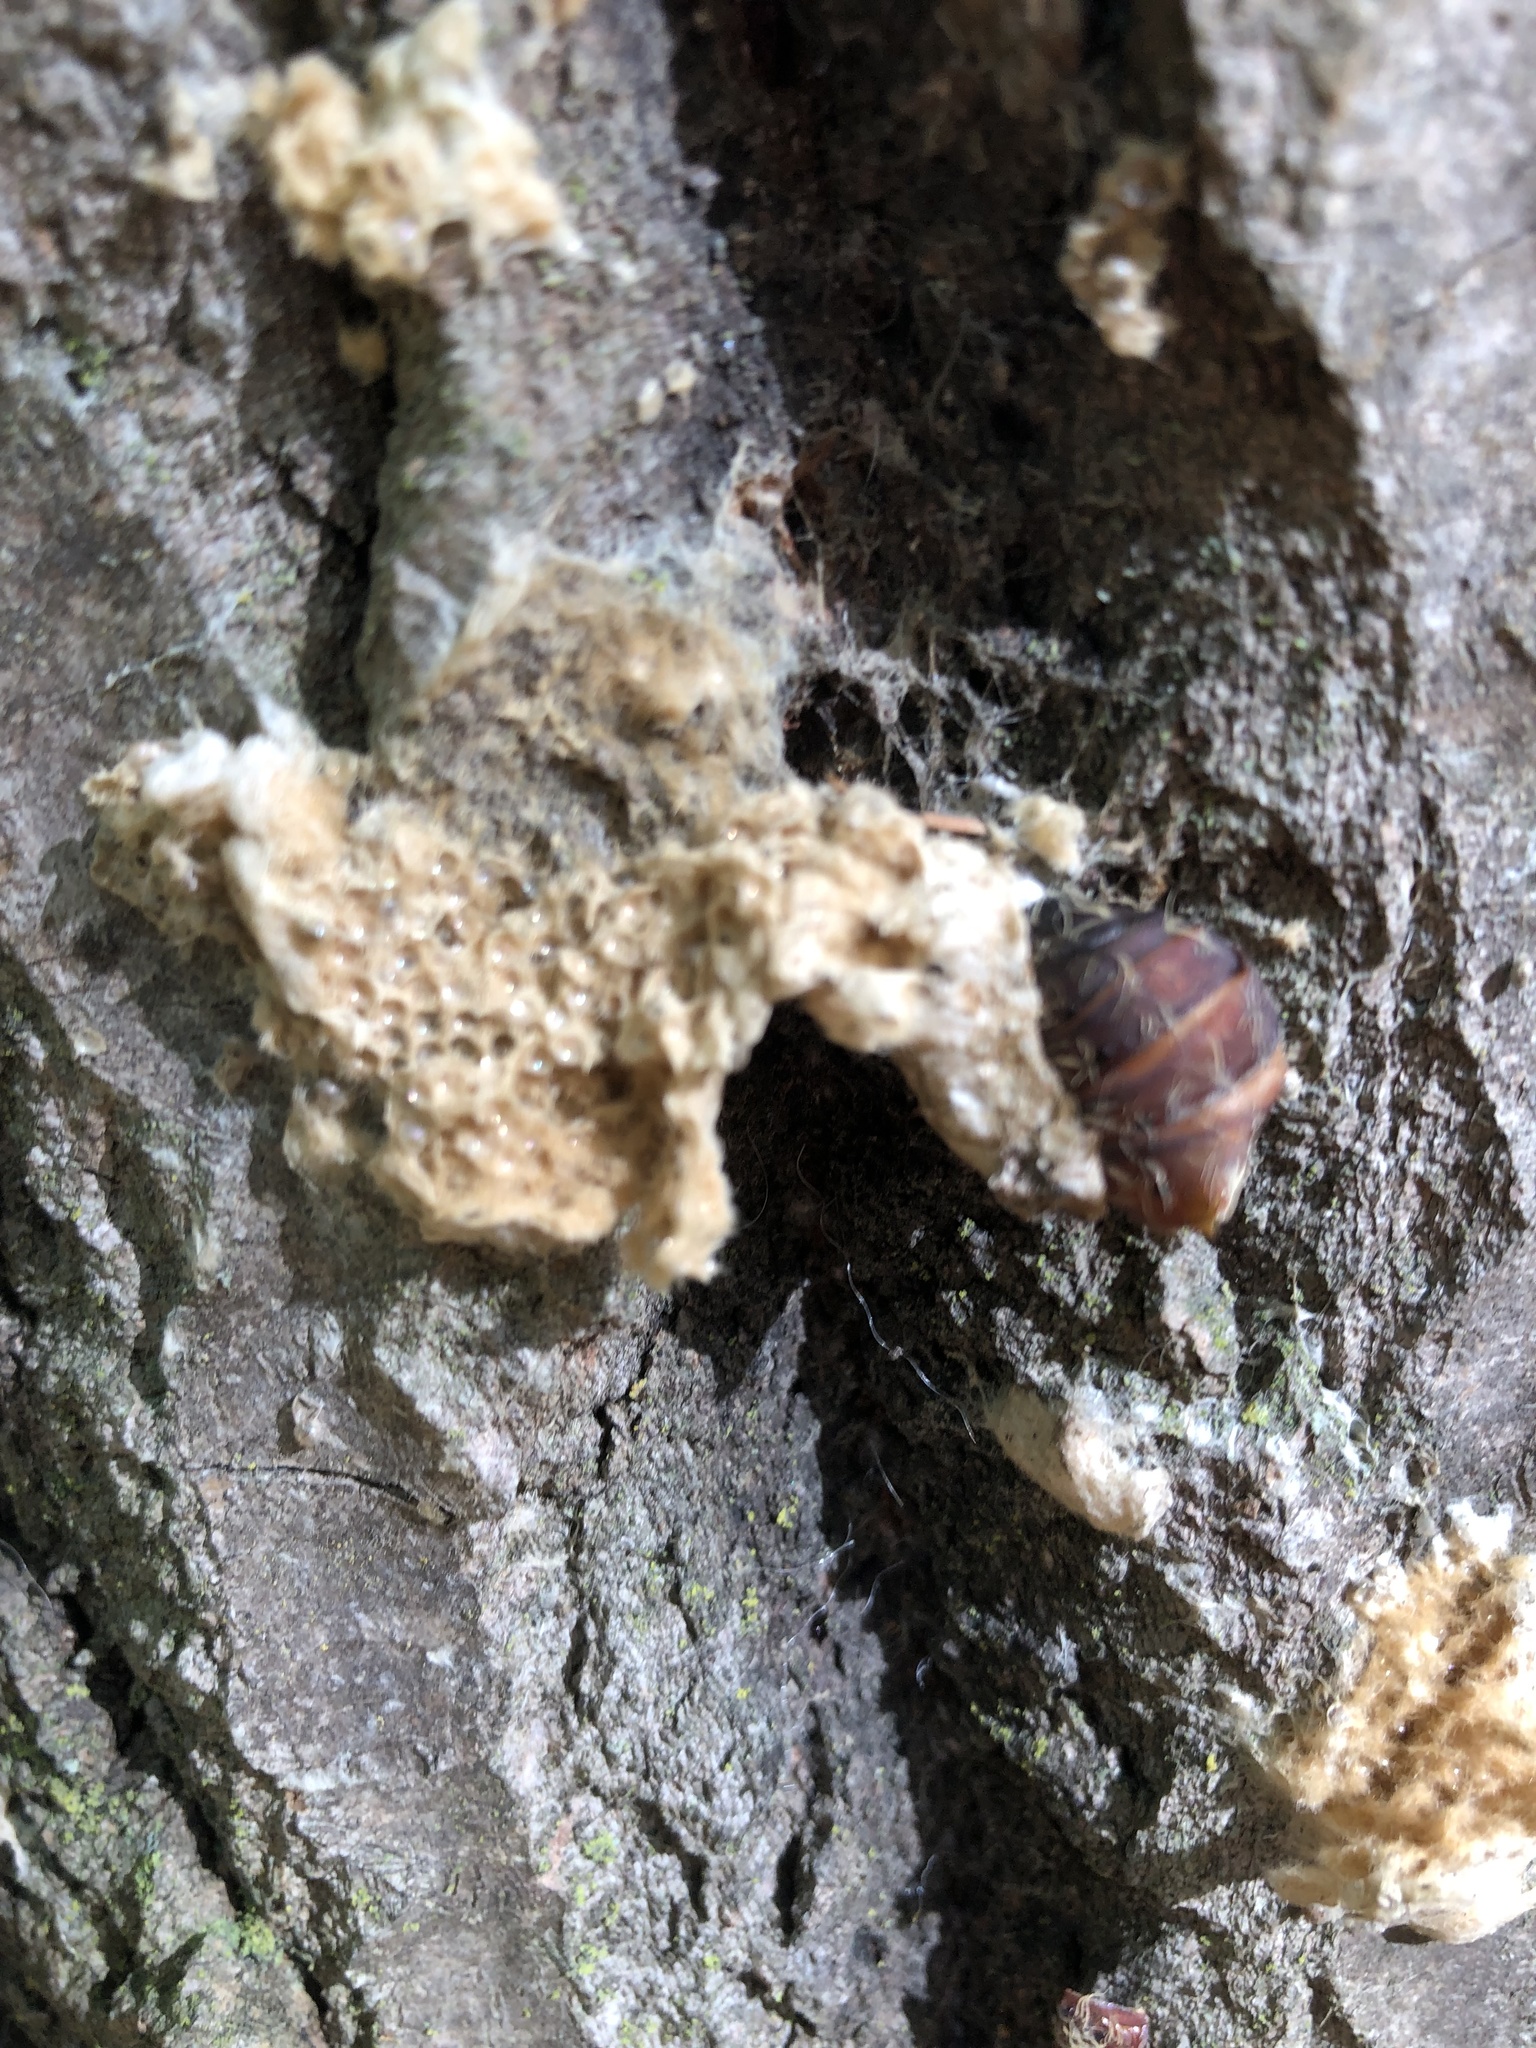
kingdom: Animalia
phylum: Arthropoda
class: Insecta
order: Lepidoptera
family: Erebidae
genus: Lymantria
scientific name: Lymantria dispar
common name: Gypsy moth
